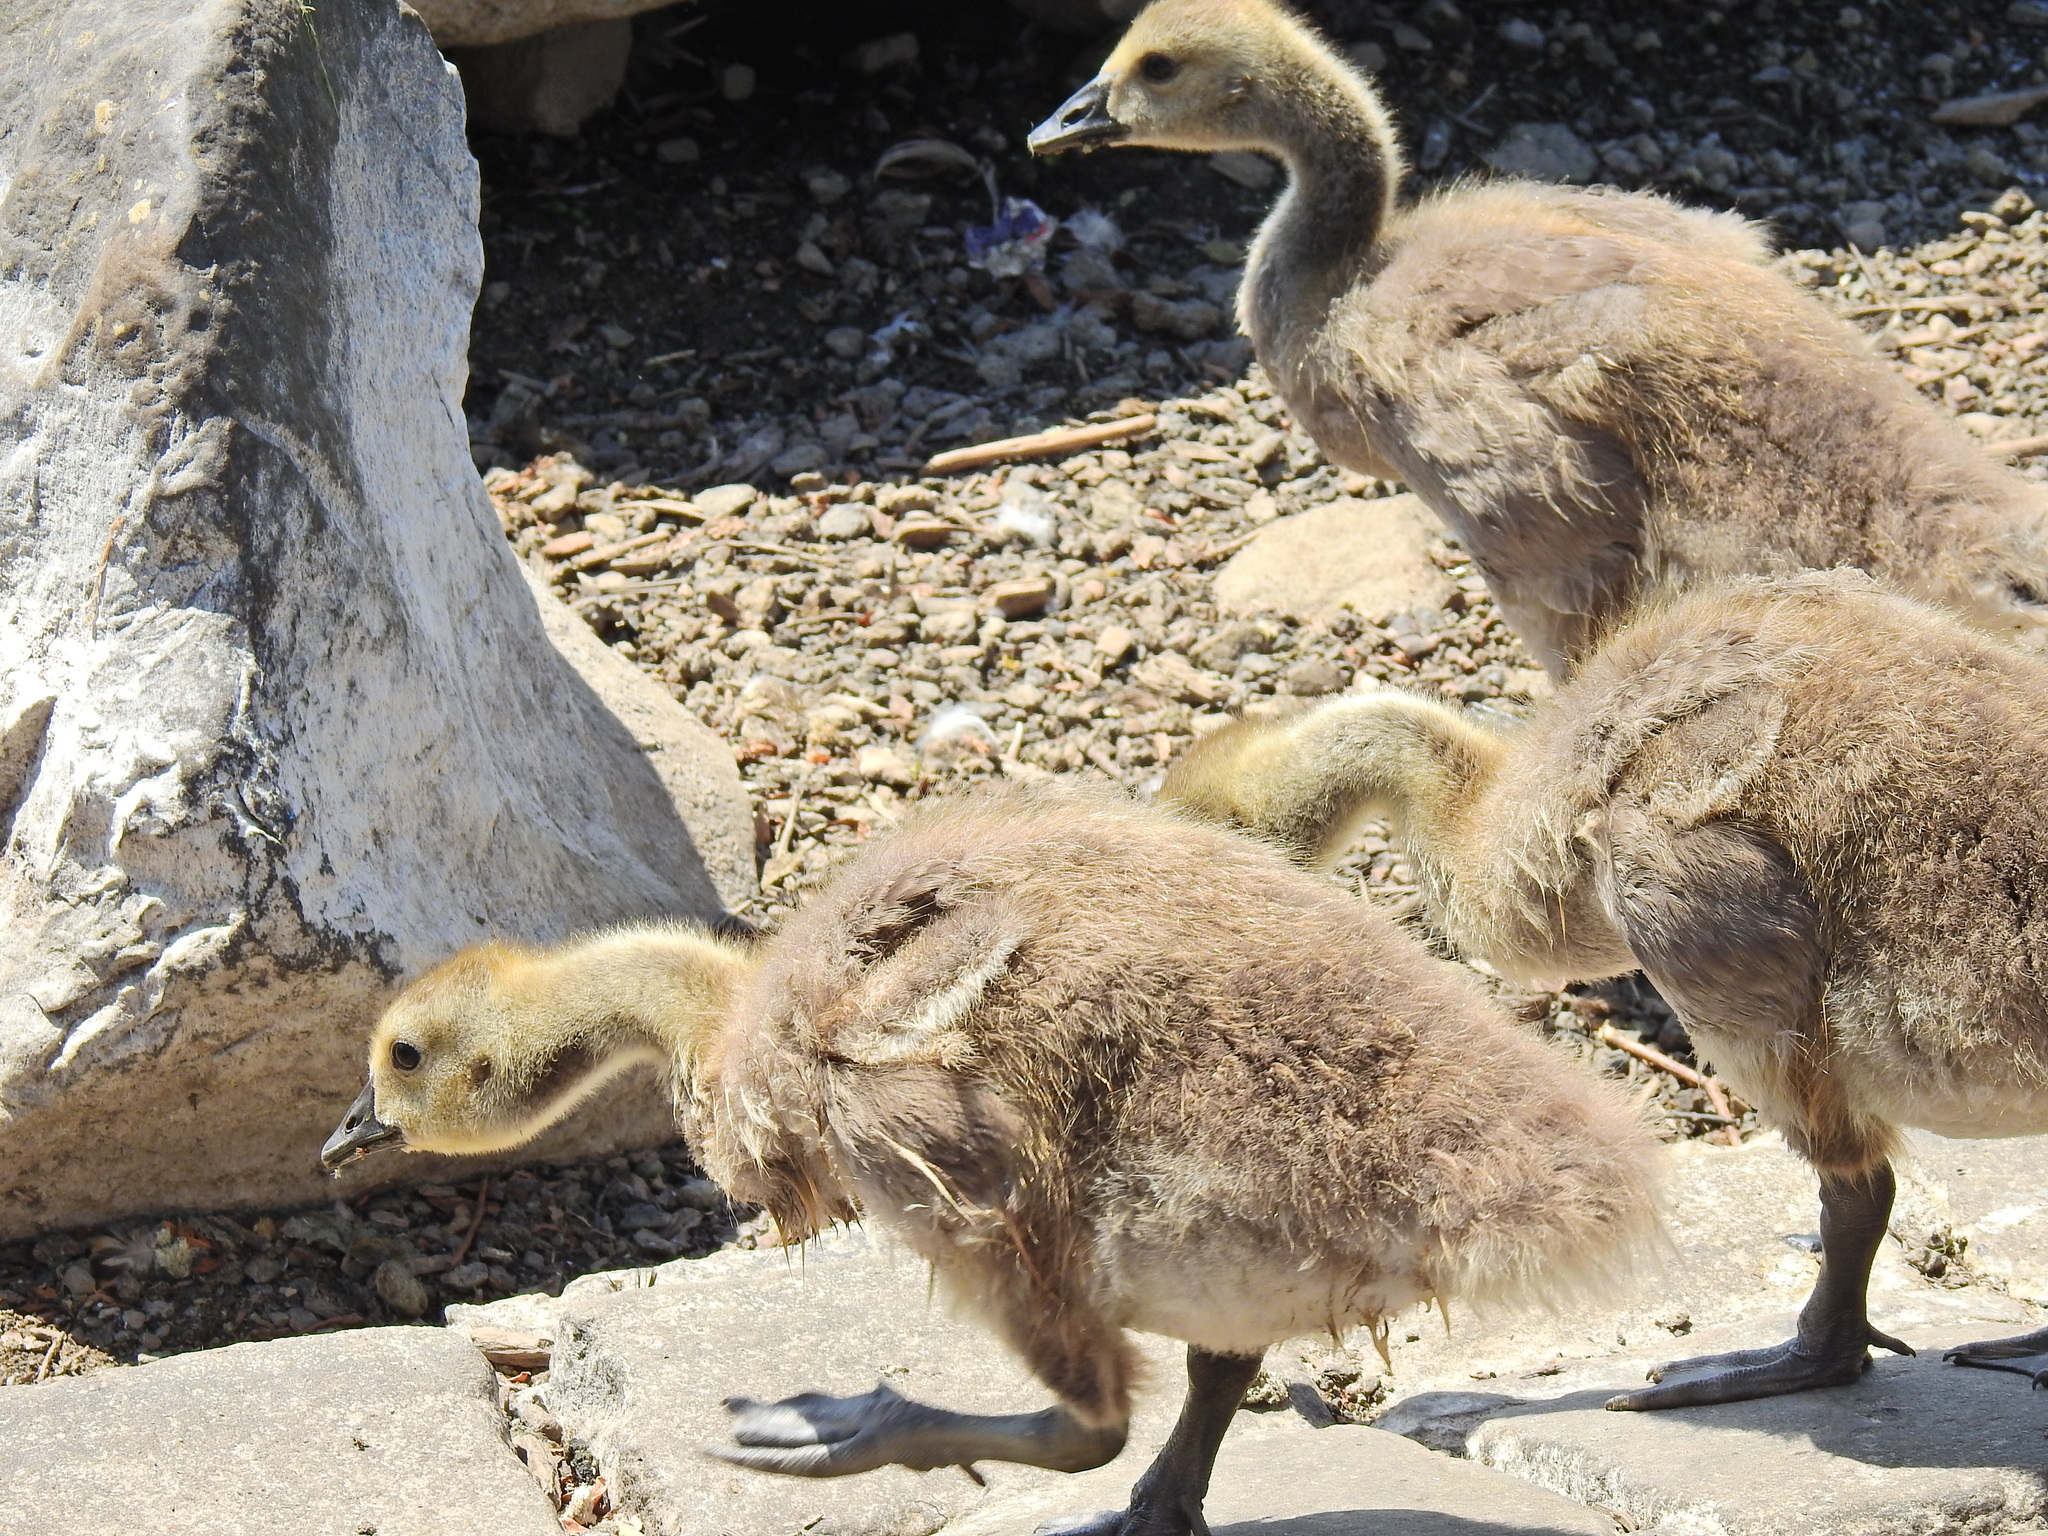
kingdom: Animalia
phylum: Chordata
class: Aves
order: Anseriformes
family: Anatidae
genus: Branta
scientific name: Branta canadensis
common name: Canada goose
